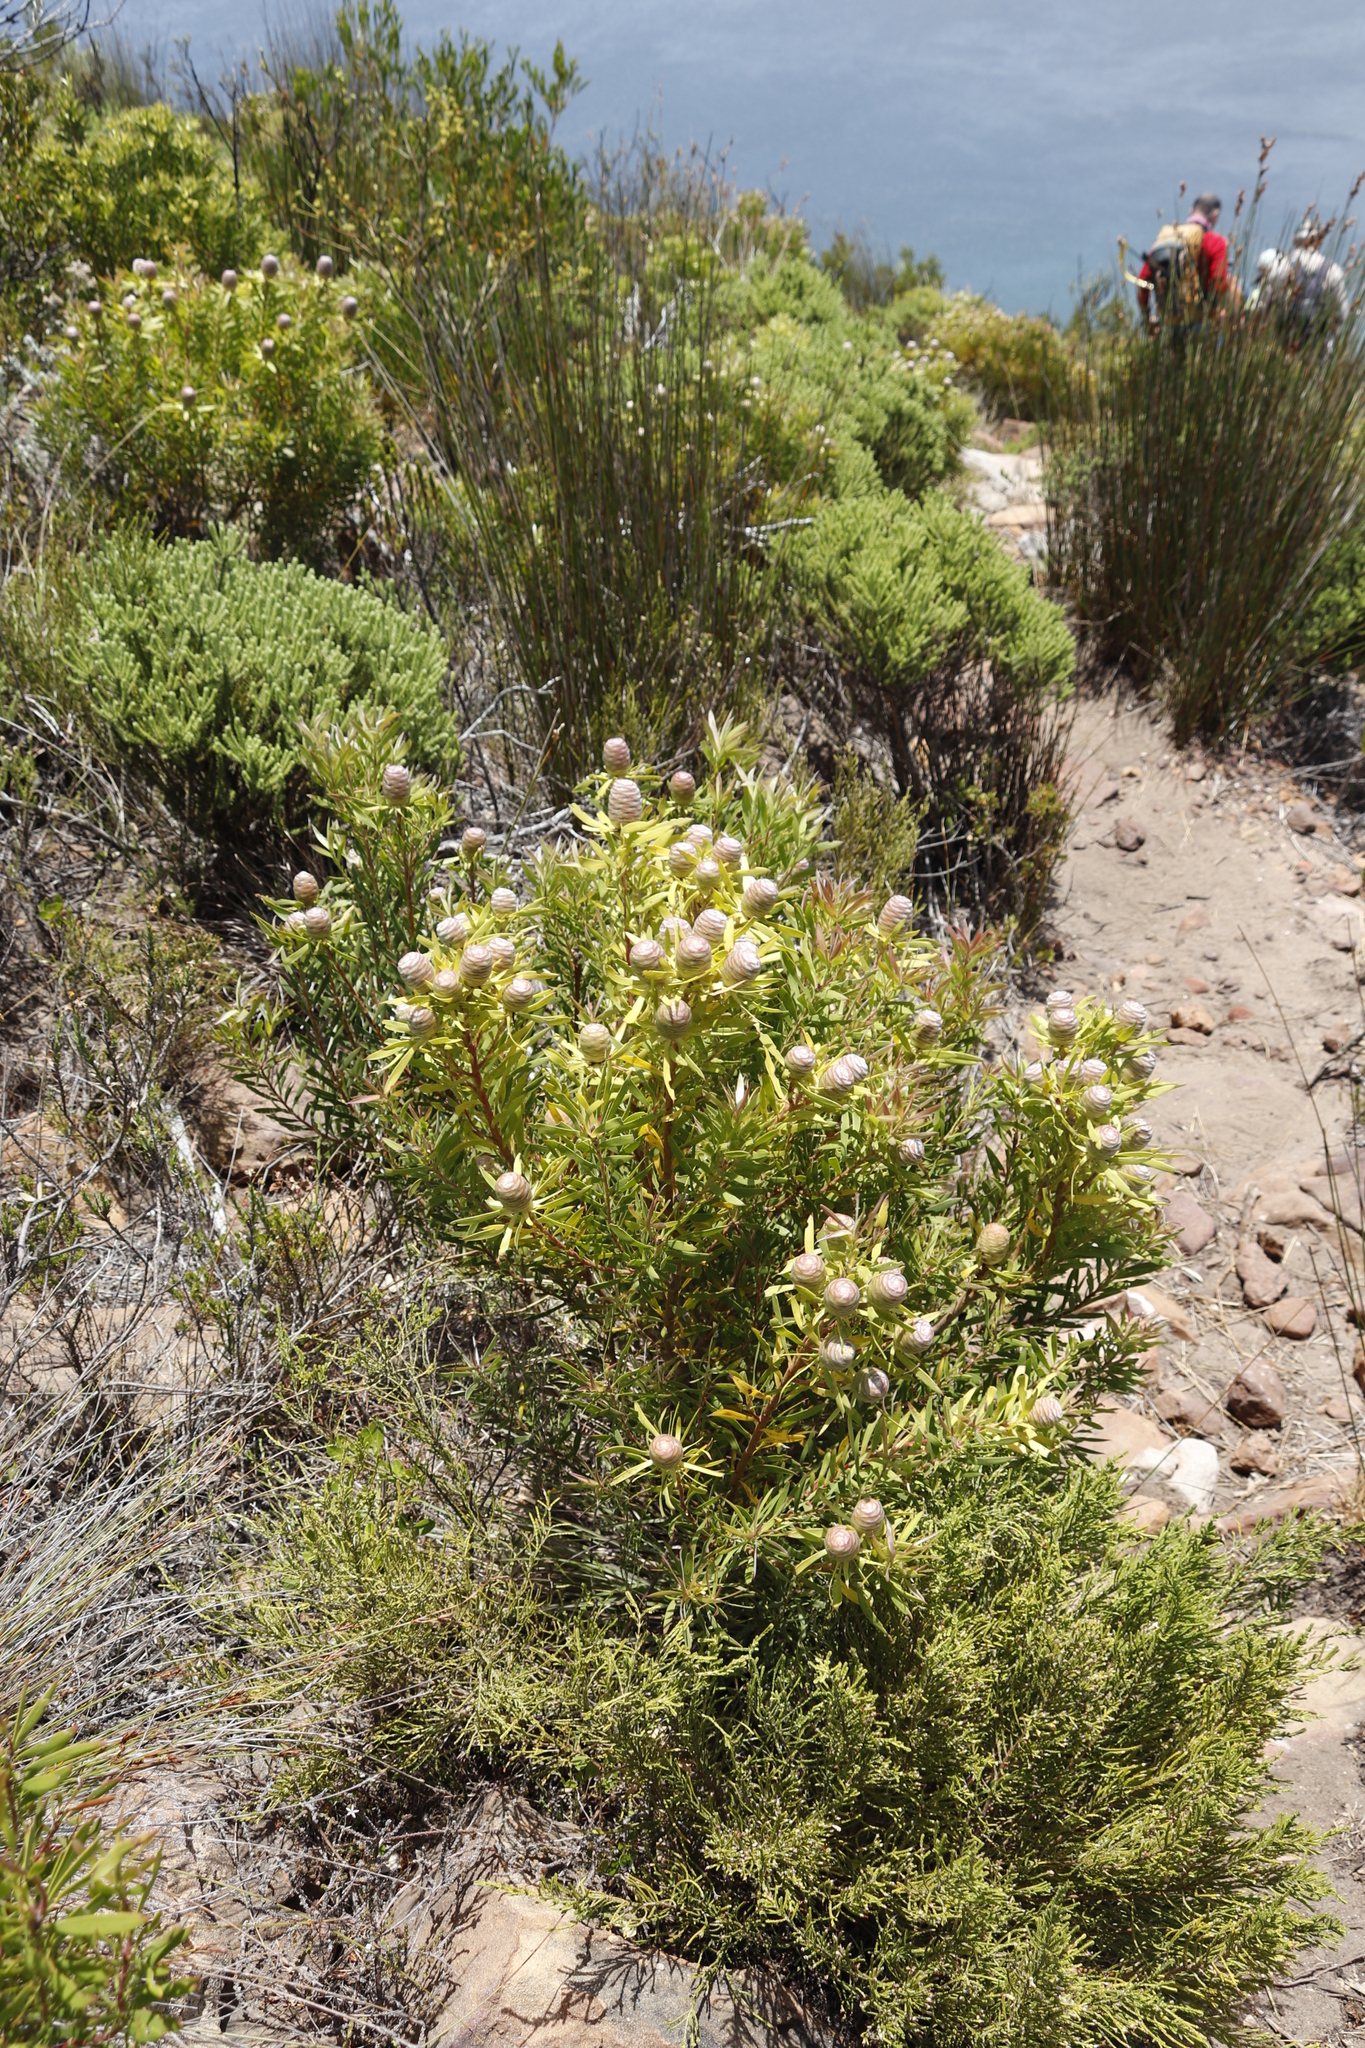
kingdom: Plantae
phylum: Tracheophyta
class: Magnoliopsida
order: Proteales
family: Proteaceae
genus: Leucadendron
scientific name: Leucadendron xanthoconus
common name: Sickle-leaf conebush
